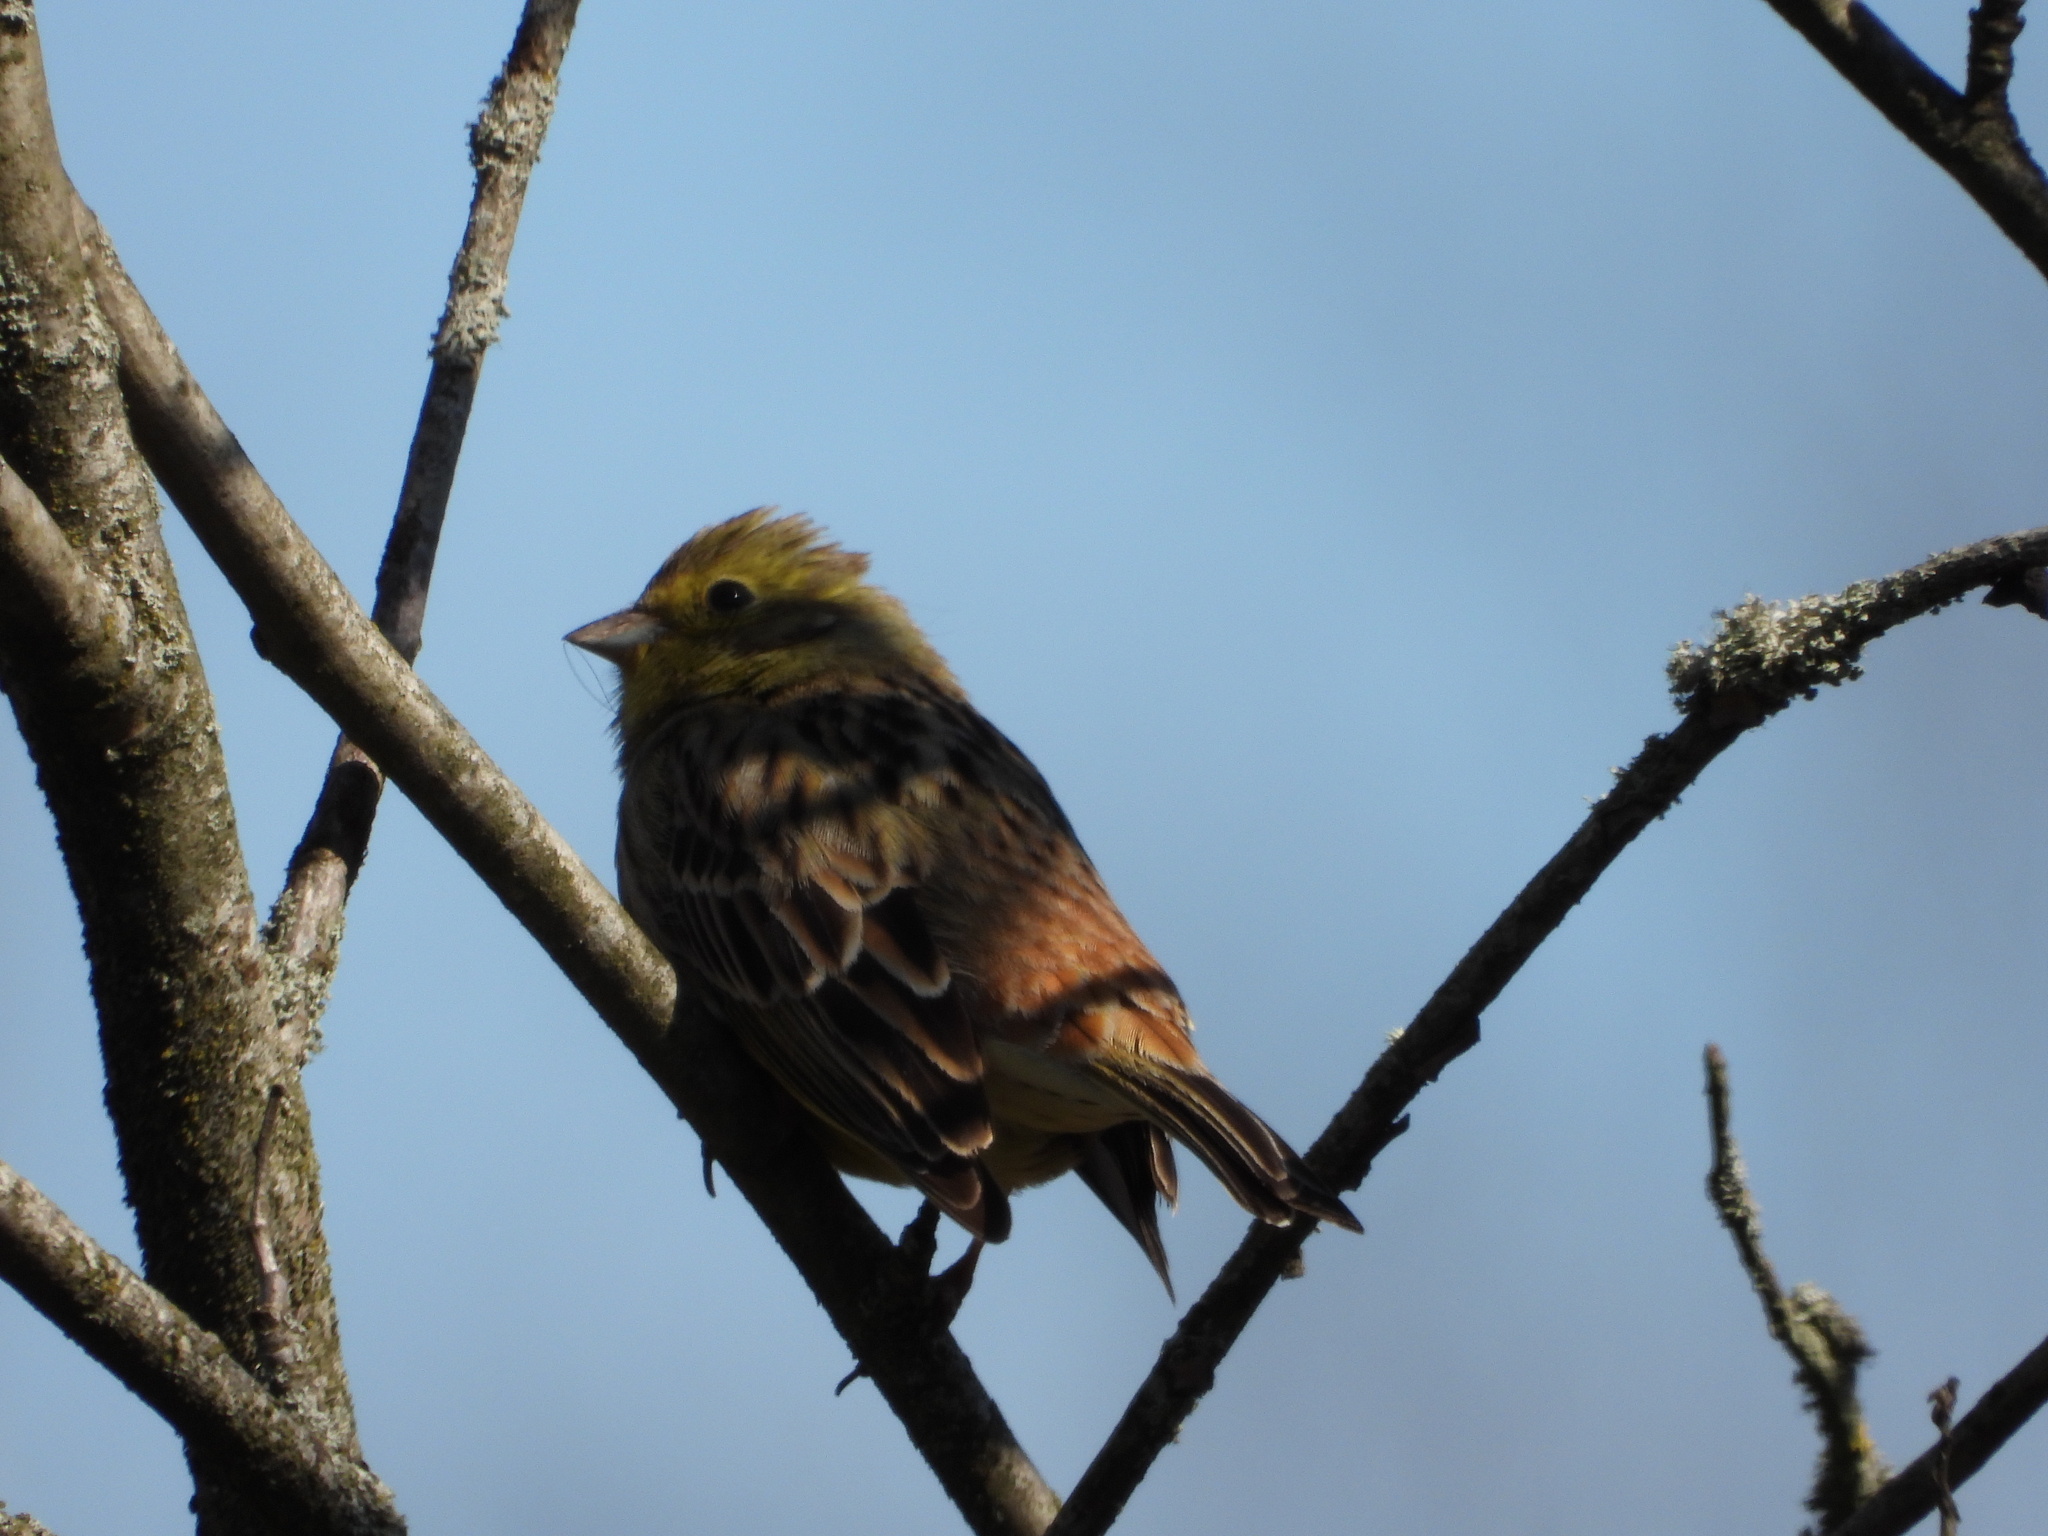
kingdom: Animalia
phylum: Chordata
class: Aves
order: Passeriformes
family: Emberizidae
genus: Emberiza
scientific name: Emberiza citrinella
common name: Yellowhammer
